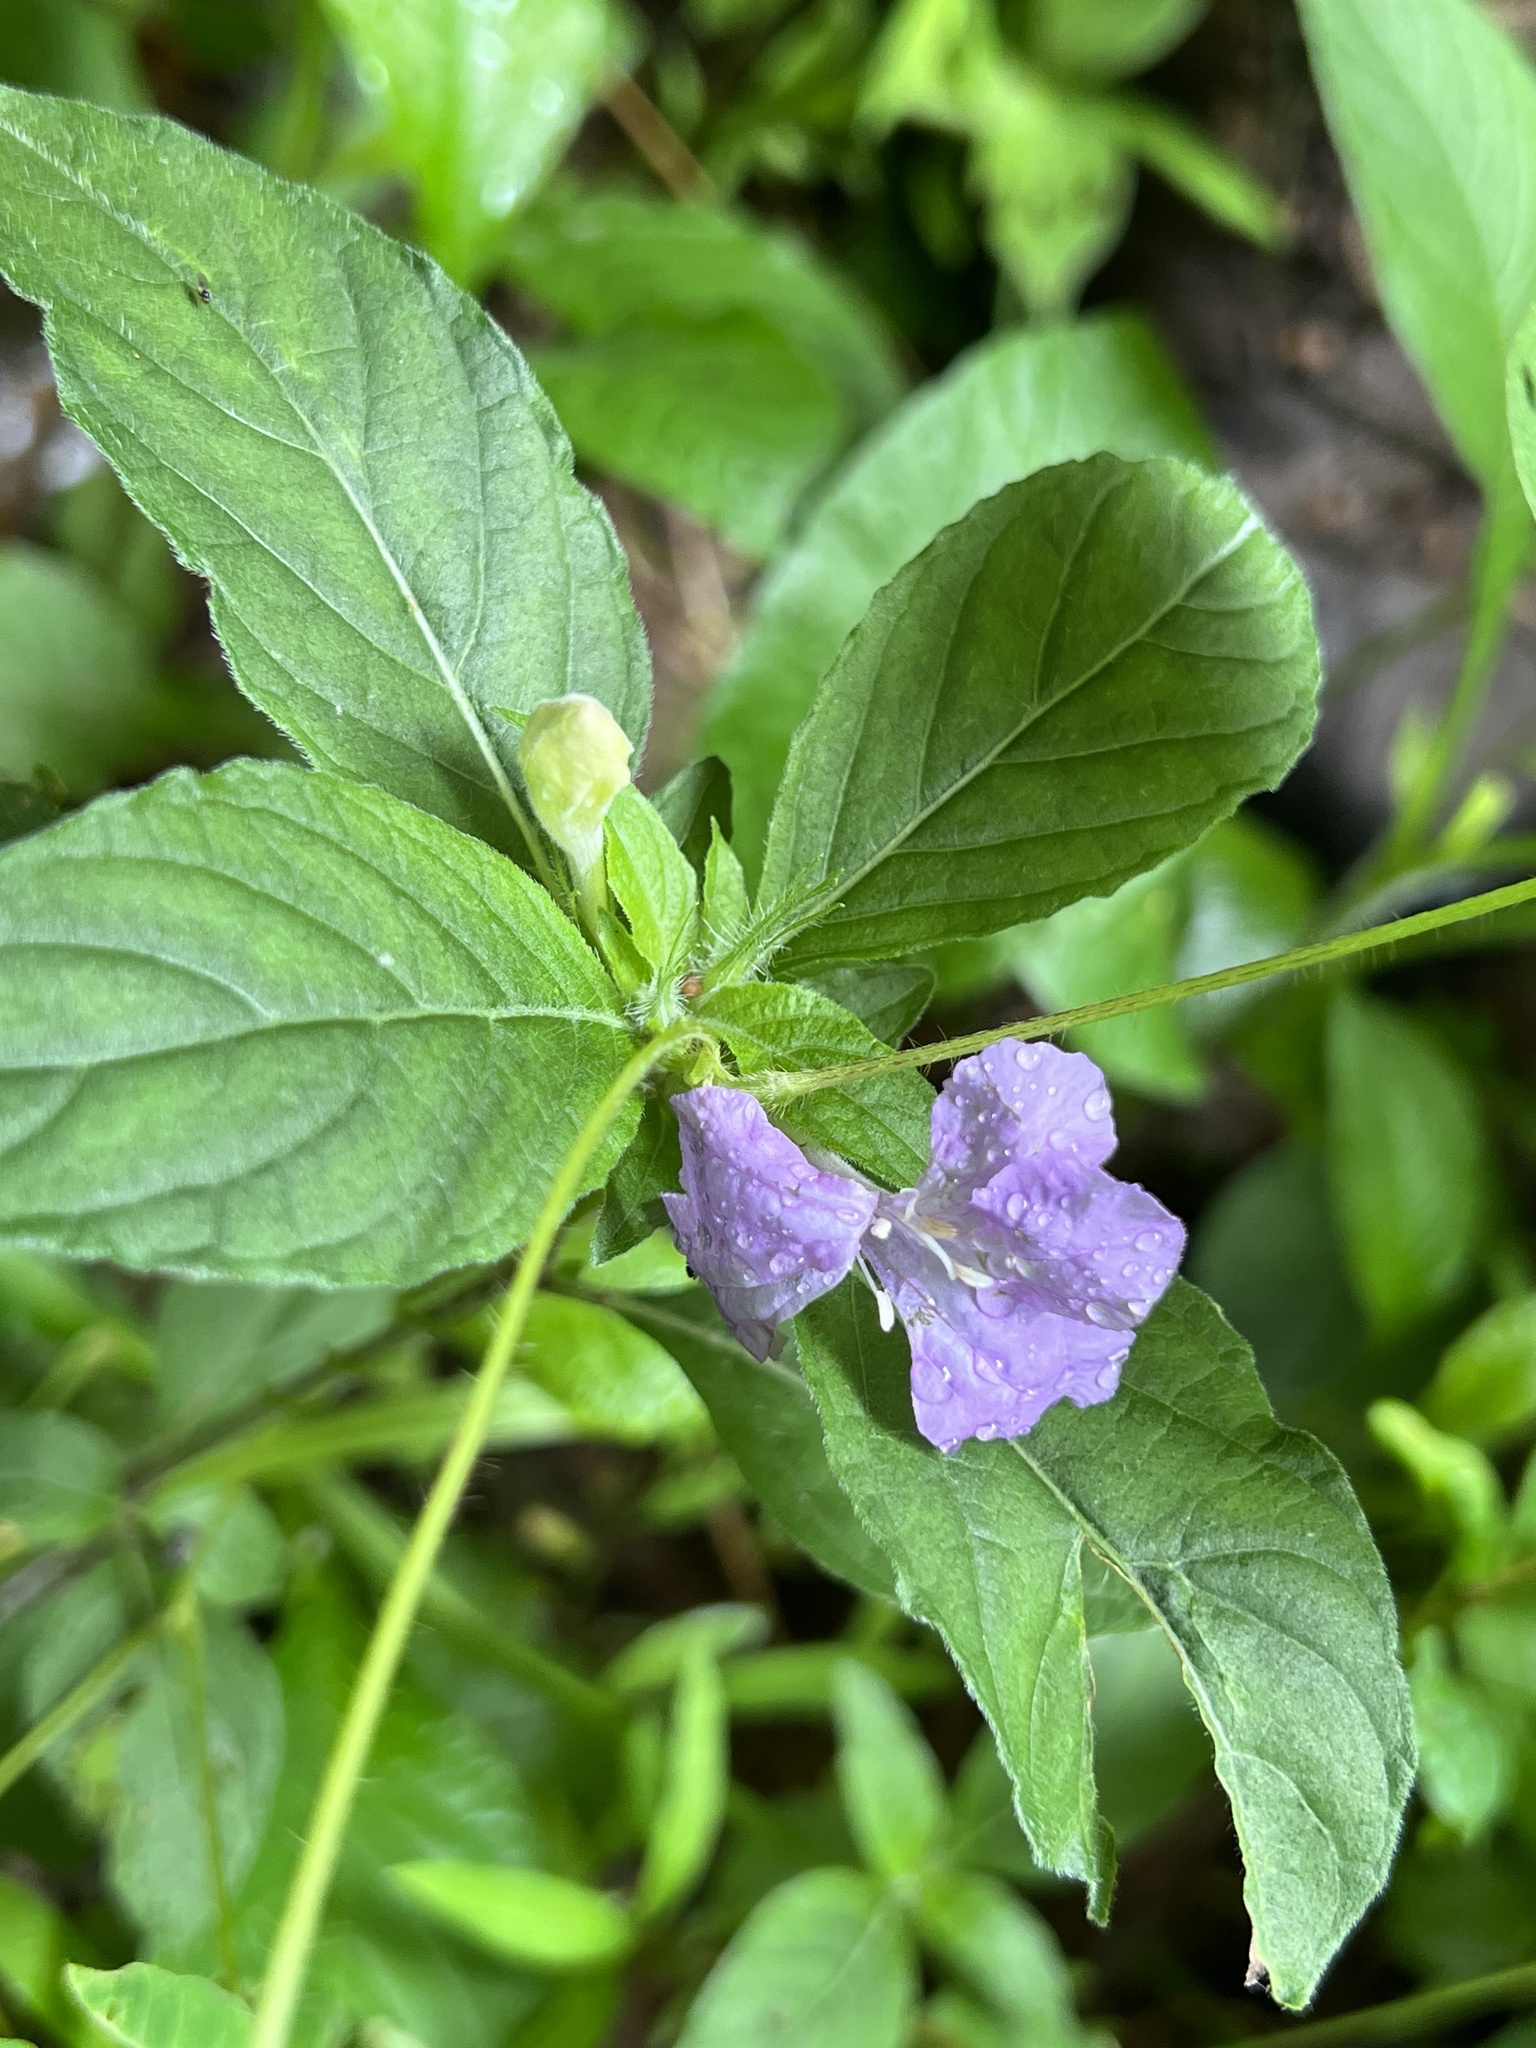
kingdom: Plantae
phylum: Tracheophyta
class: Magnoliopsida
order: Lamiales
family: Acanthaceae
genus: Ruellia
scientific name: Ruellia caroliniensis
